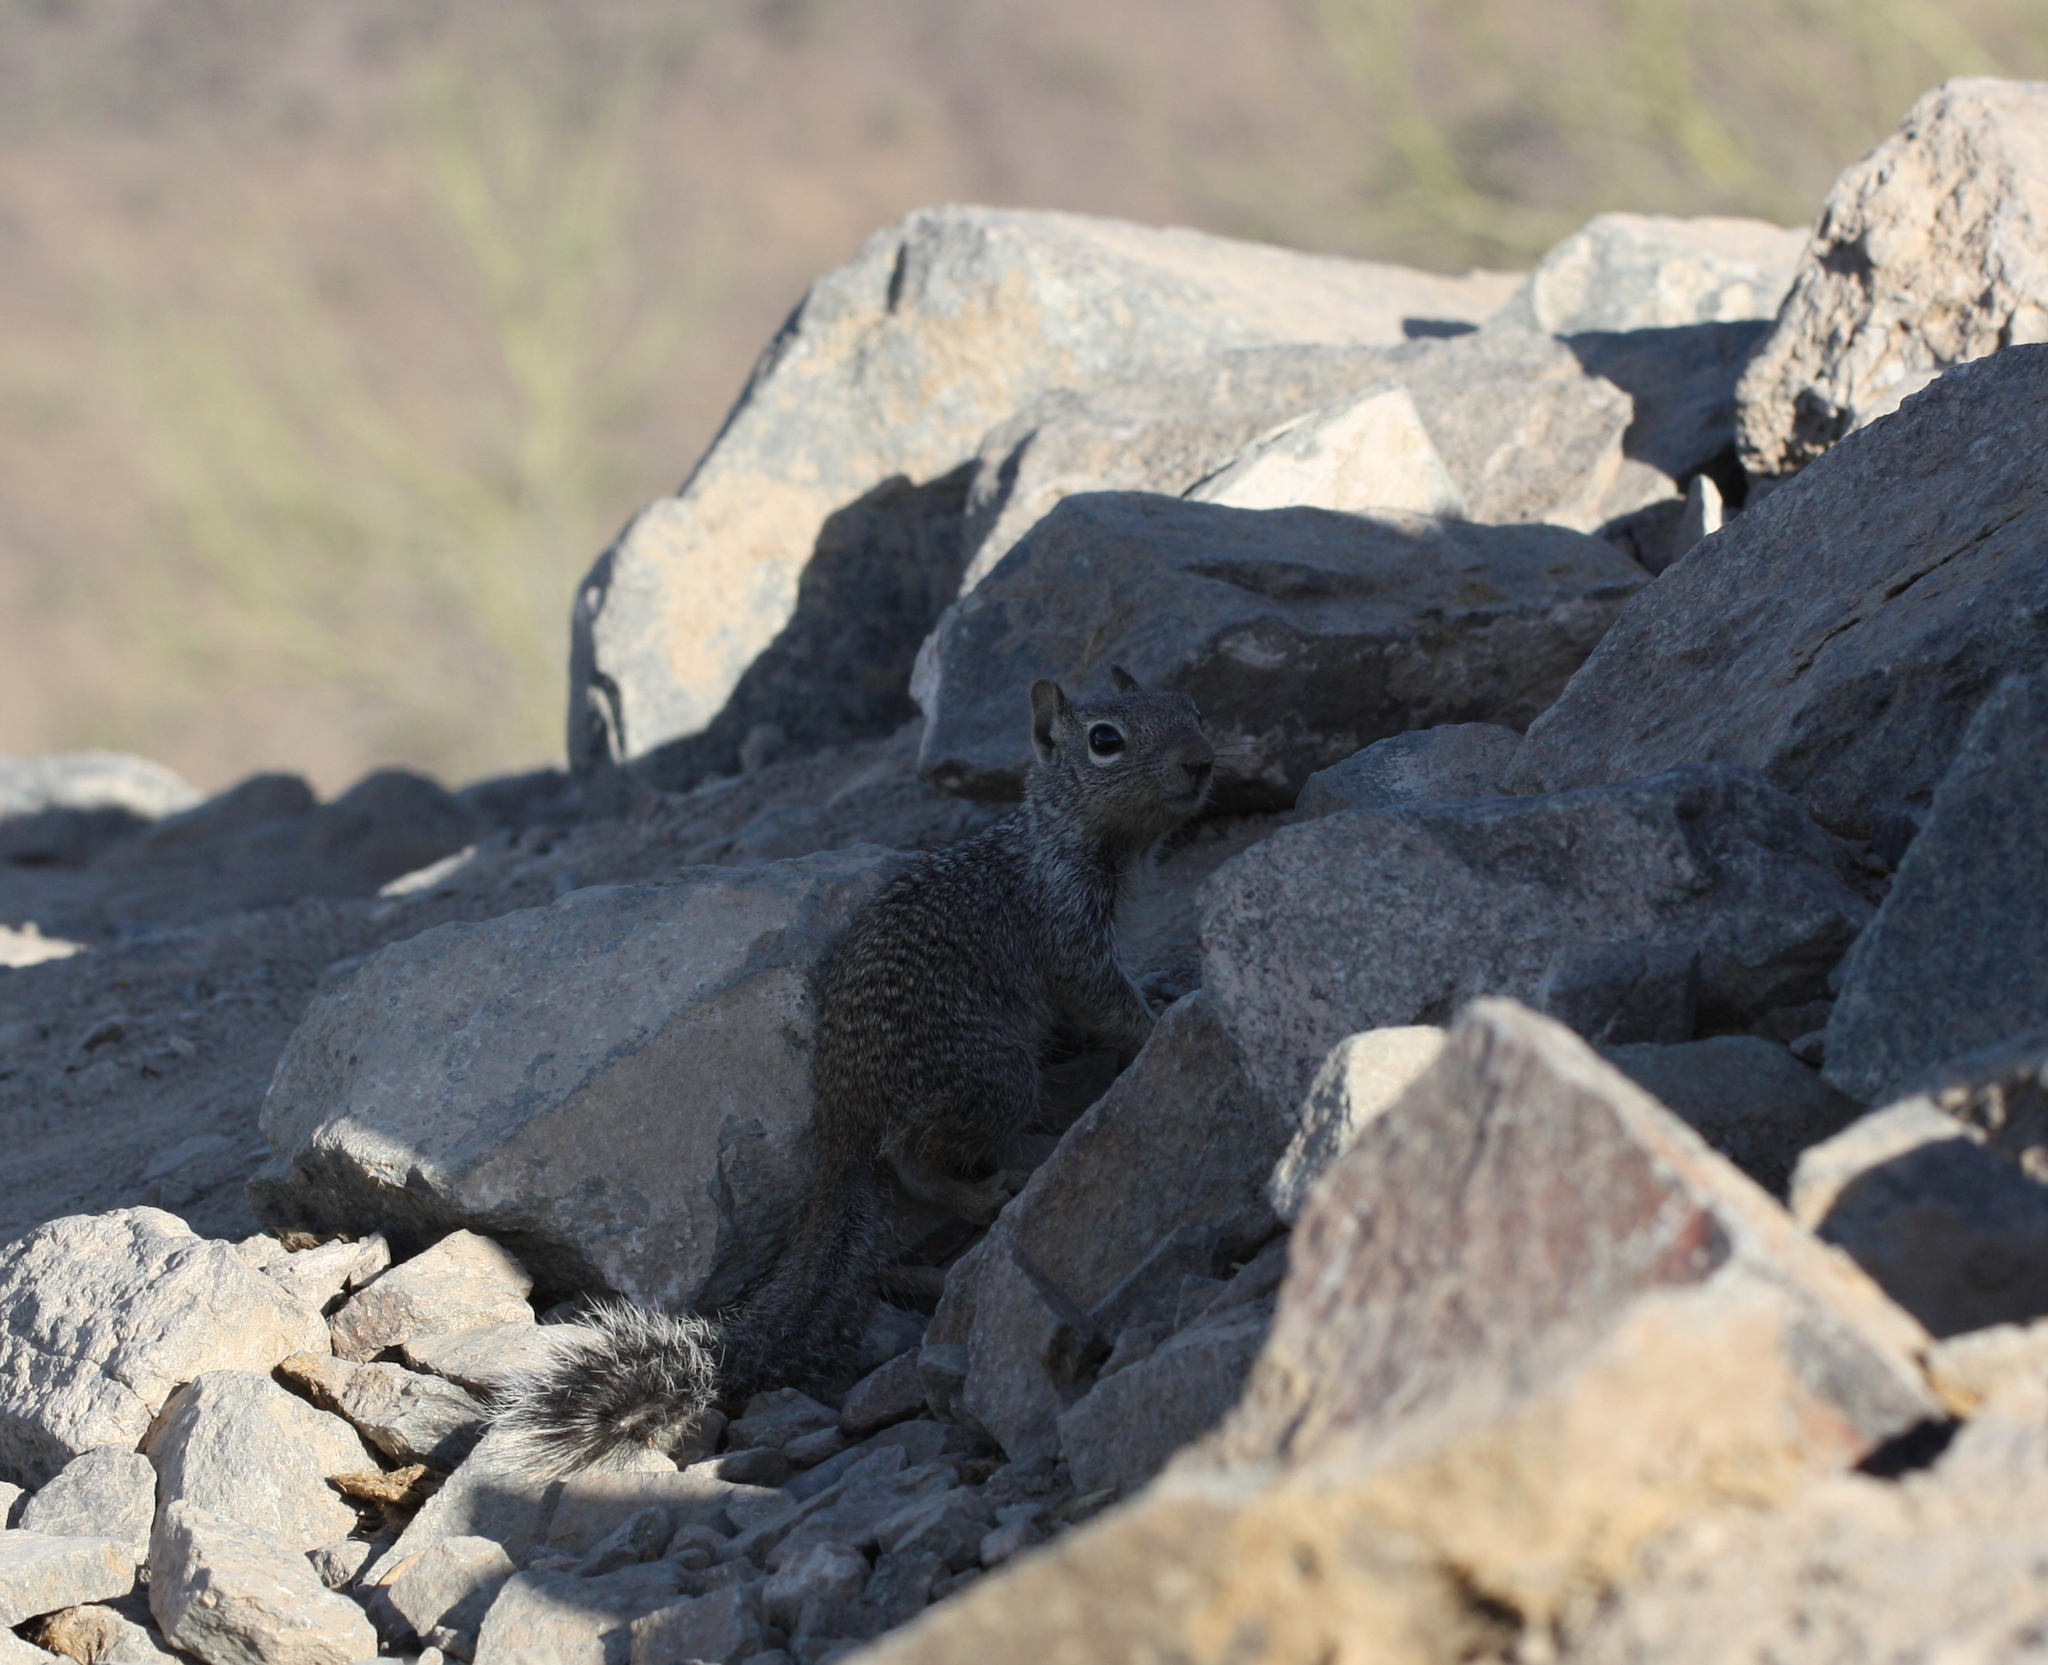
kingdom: Animalia
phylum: Chordata
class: Mammalia
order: Rodentia
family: Sciuridae
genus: Otospermophilus
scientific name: Otospermophilus variegatus
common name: Rock squirrel
